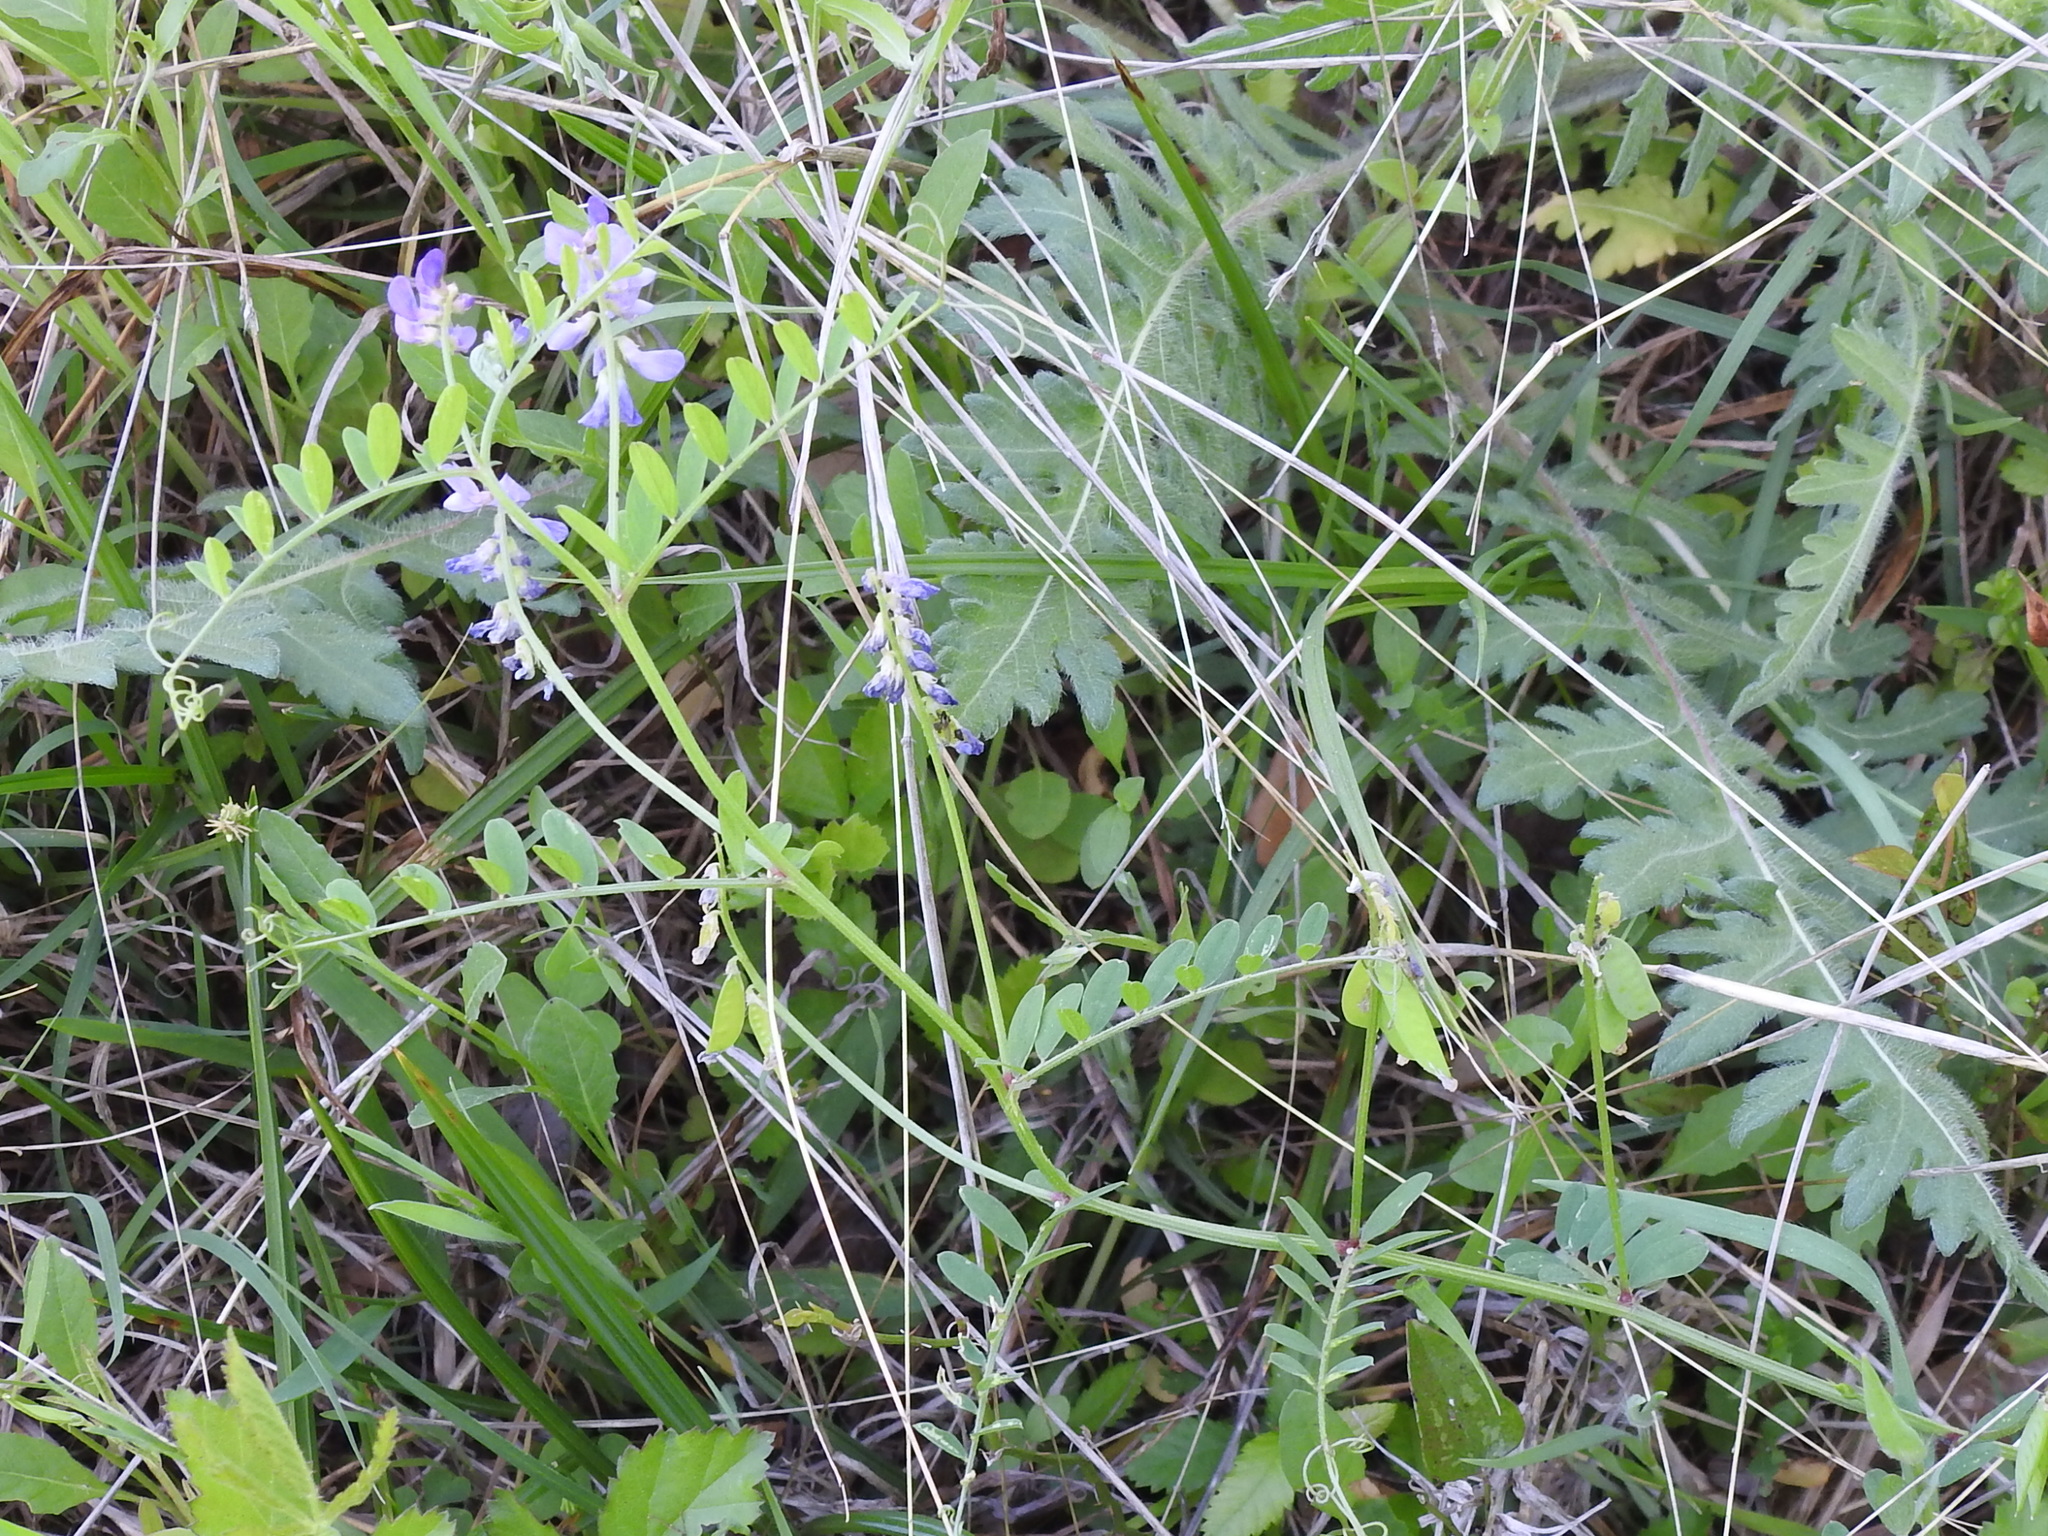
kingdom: Plantae
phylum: Tracheophyta
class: Magnoliopsida
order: Fabales
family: Fabaceae
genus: Vicia
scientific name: Vicia ludoviciana
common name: Louisiana vetch
